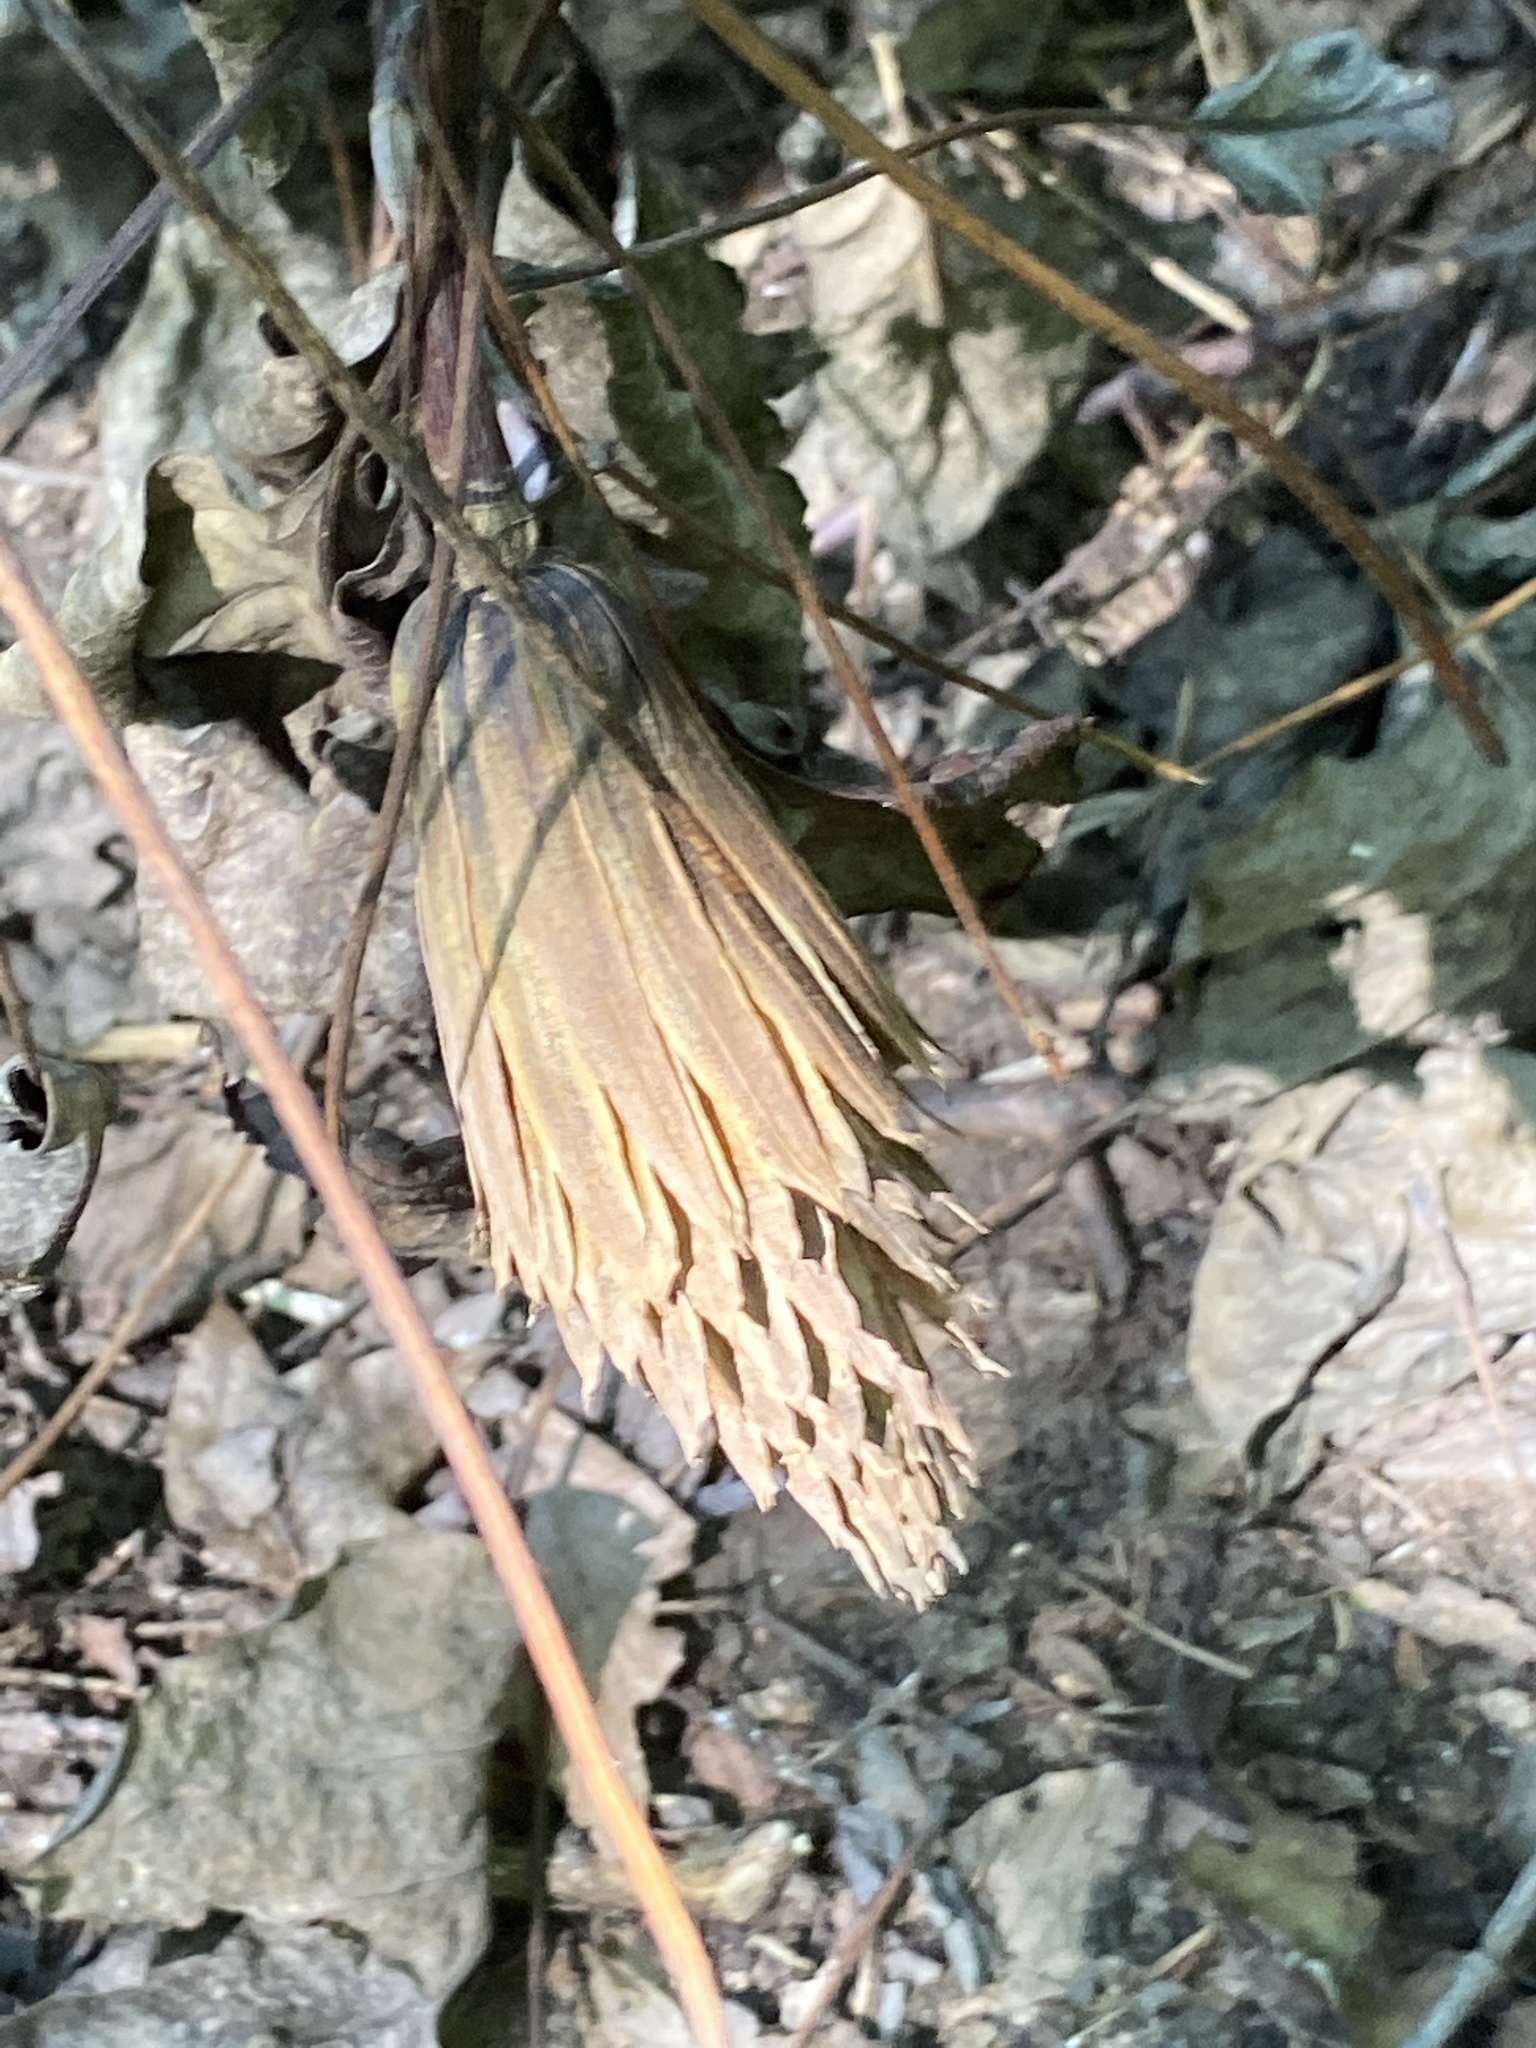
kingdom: Plantae
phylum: Tracheophyta
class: Magnoliopsida
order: Magnoliales
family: Magnoliaceae
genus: Liriodendron
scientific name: Liriodendron tulipifera
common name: Tulip tree
